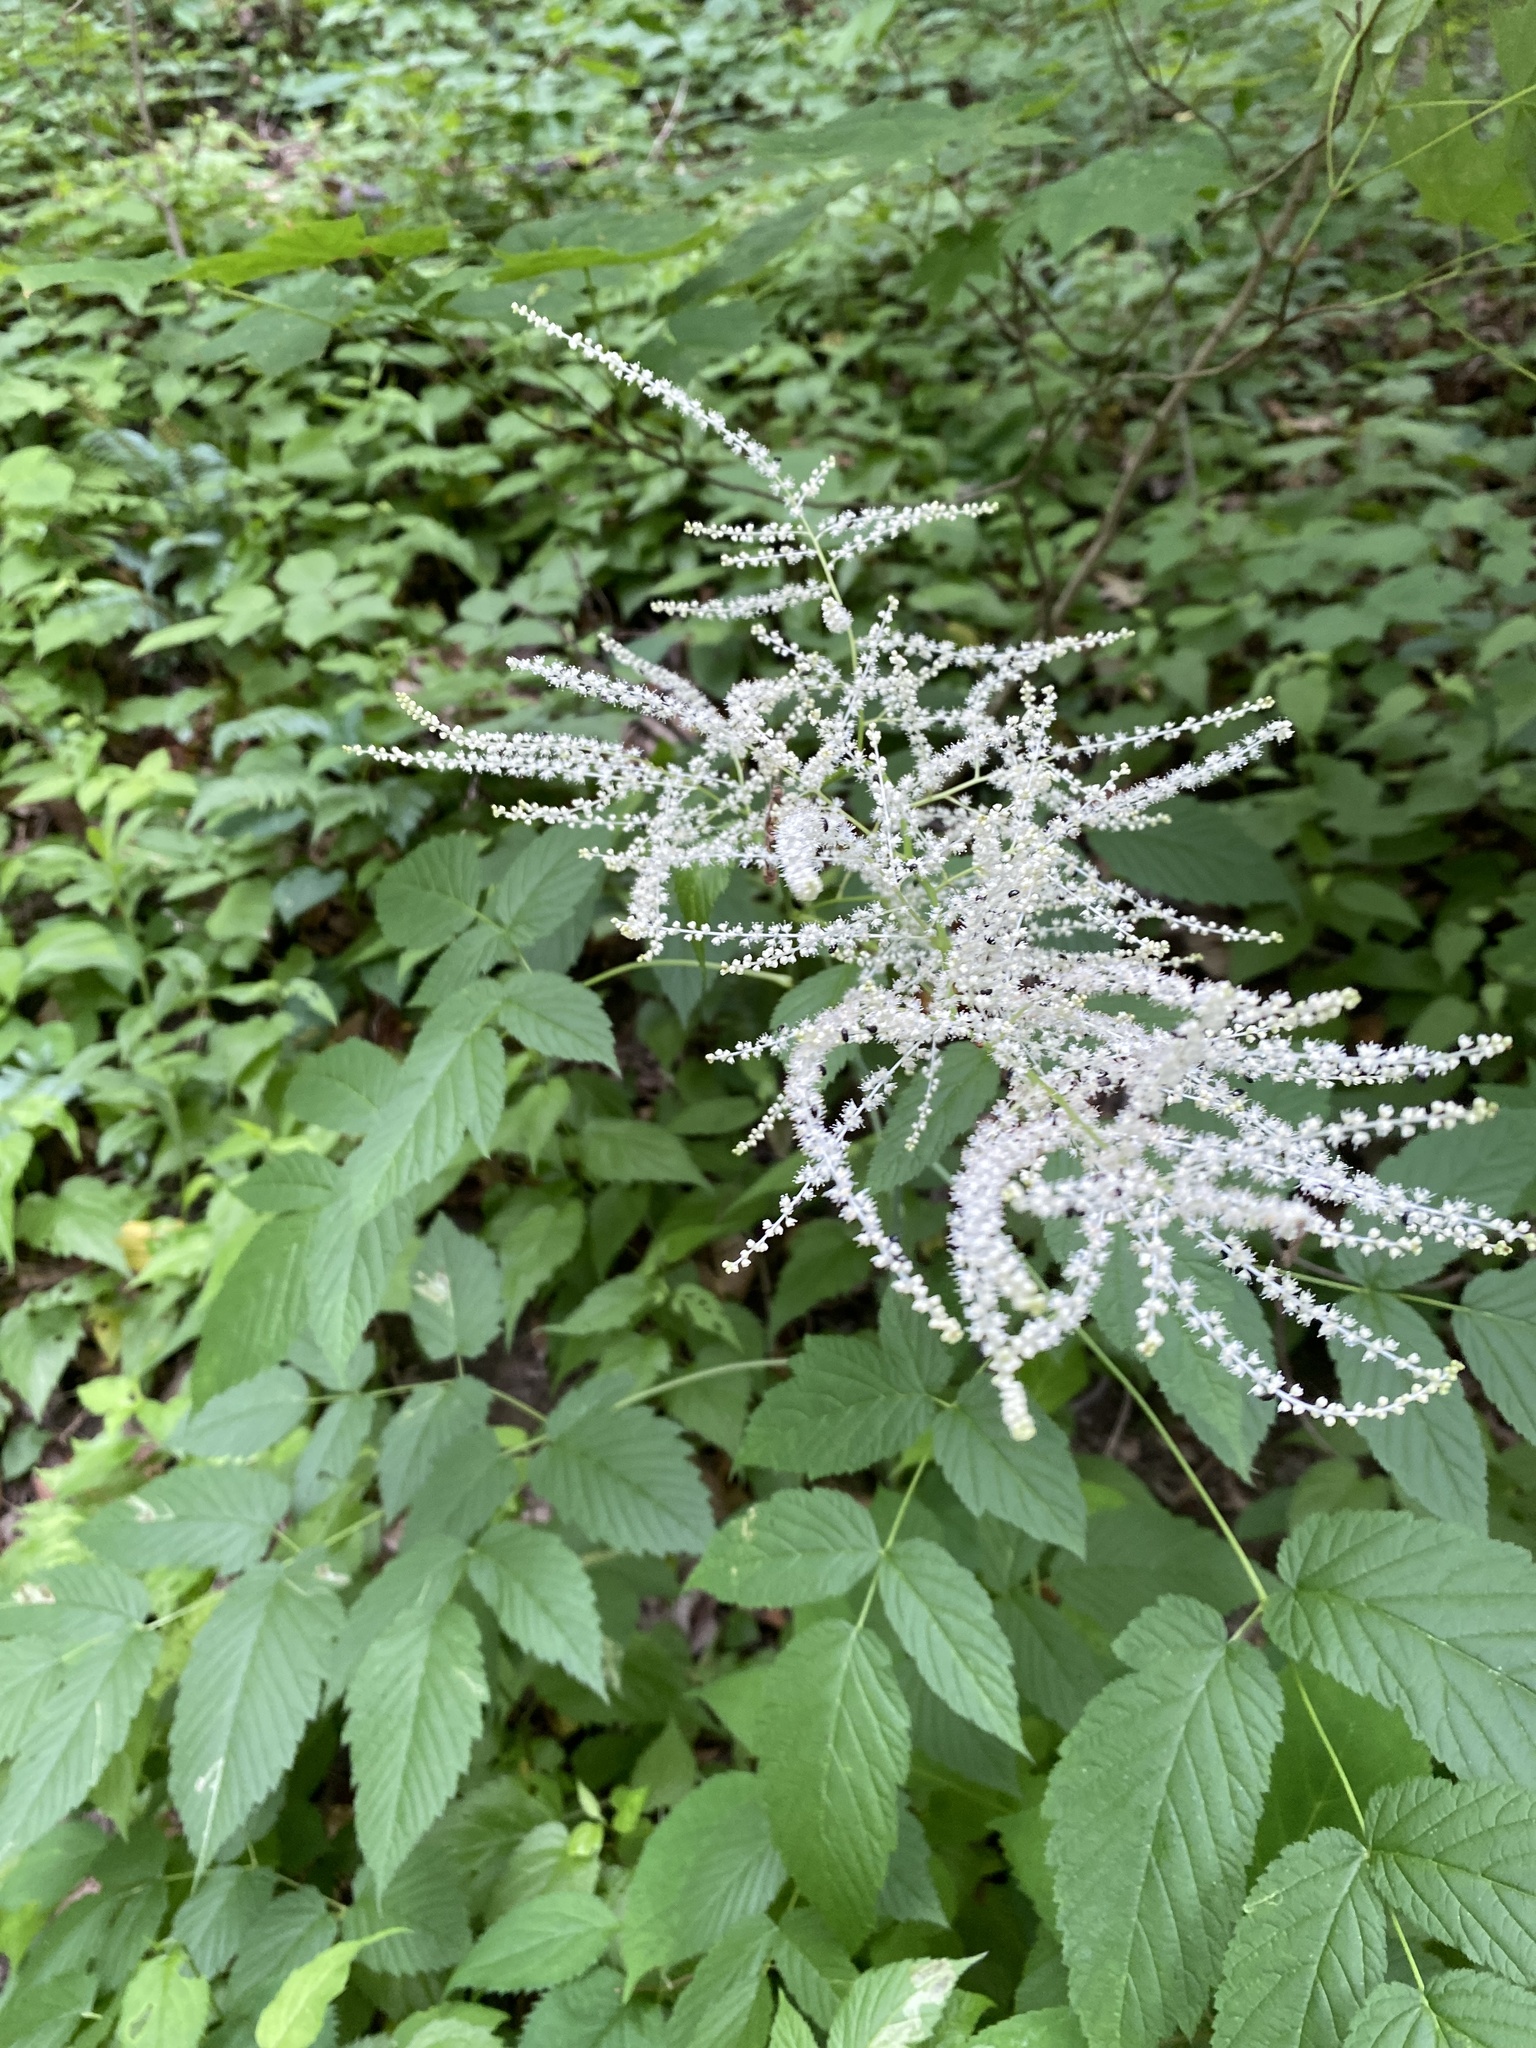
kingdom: Plantae
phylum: Tracheophyta
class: Magnoliopsida
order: Rosales
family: Rosaceae
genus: Aruncus
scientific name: Aruncus dioicus
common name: Buck's-beard
